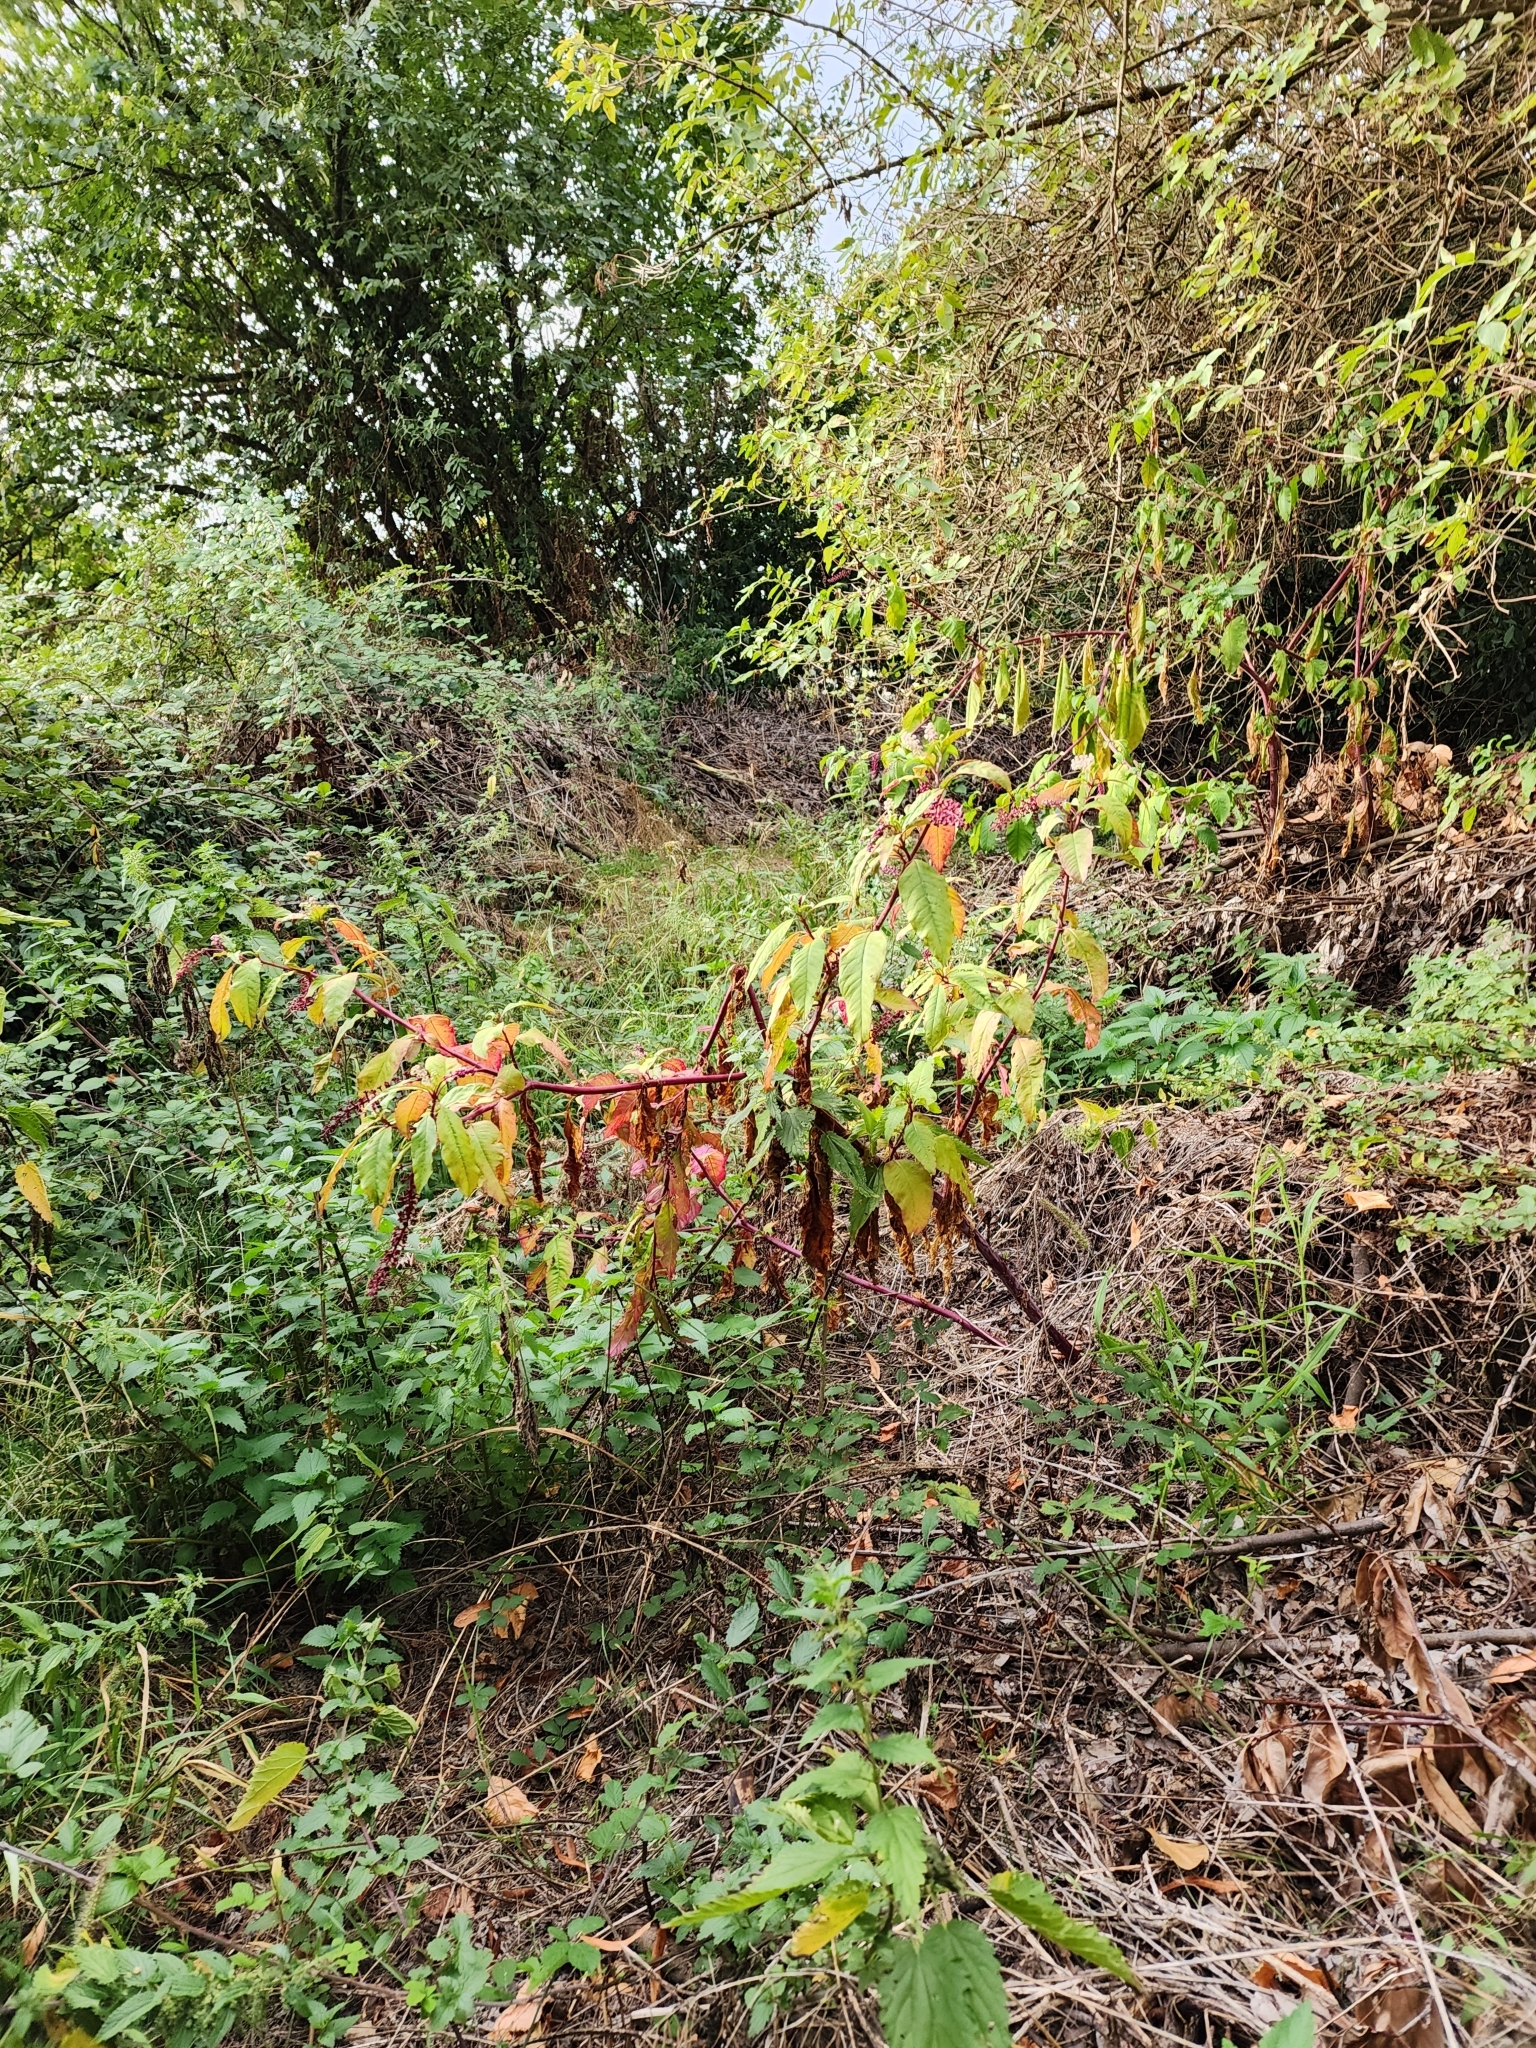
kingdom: Plantae
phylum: Tracheophyta
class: Magnoliopsida
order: Caryophyllales
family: Phytolaccaceae
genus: Phytolacca
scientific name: Phytolacca americana
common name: American pokeweed
